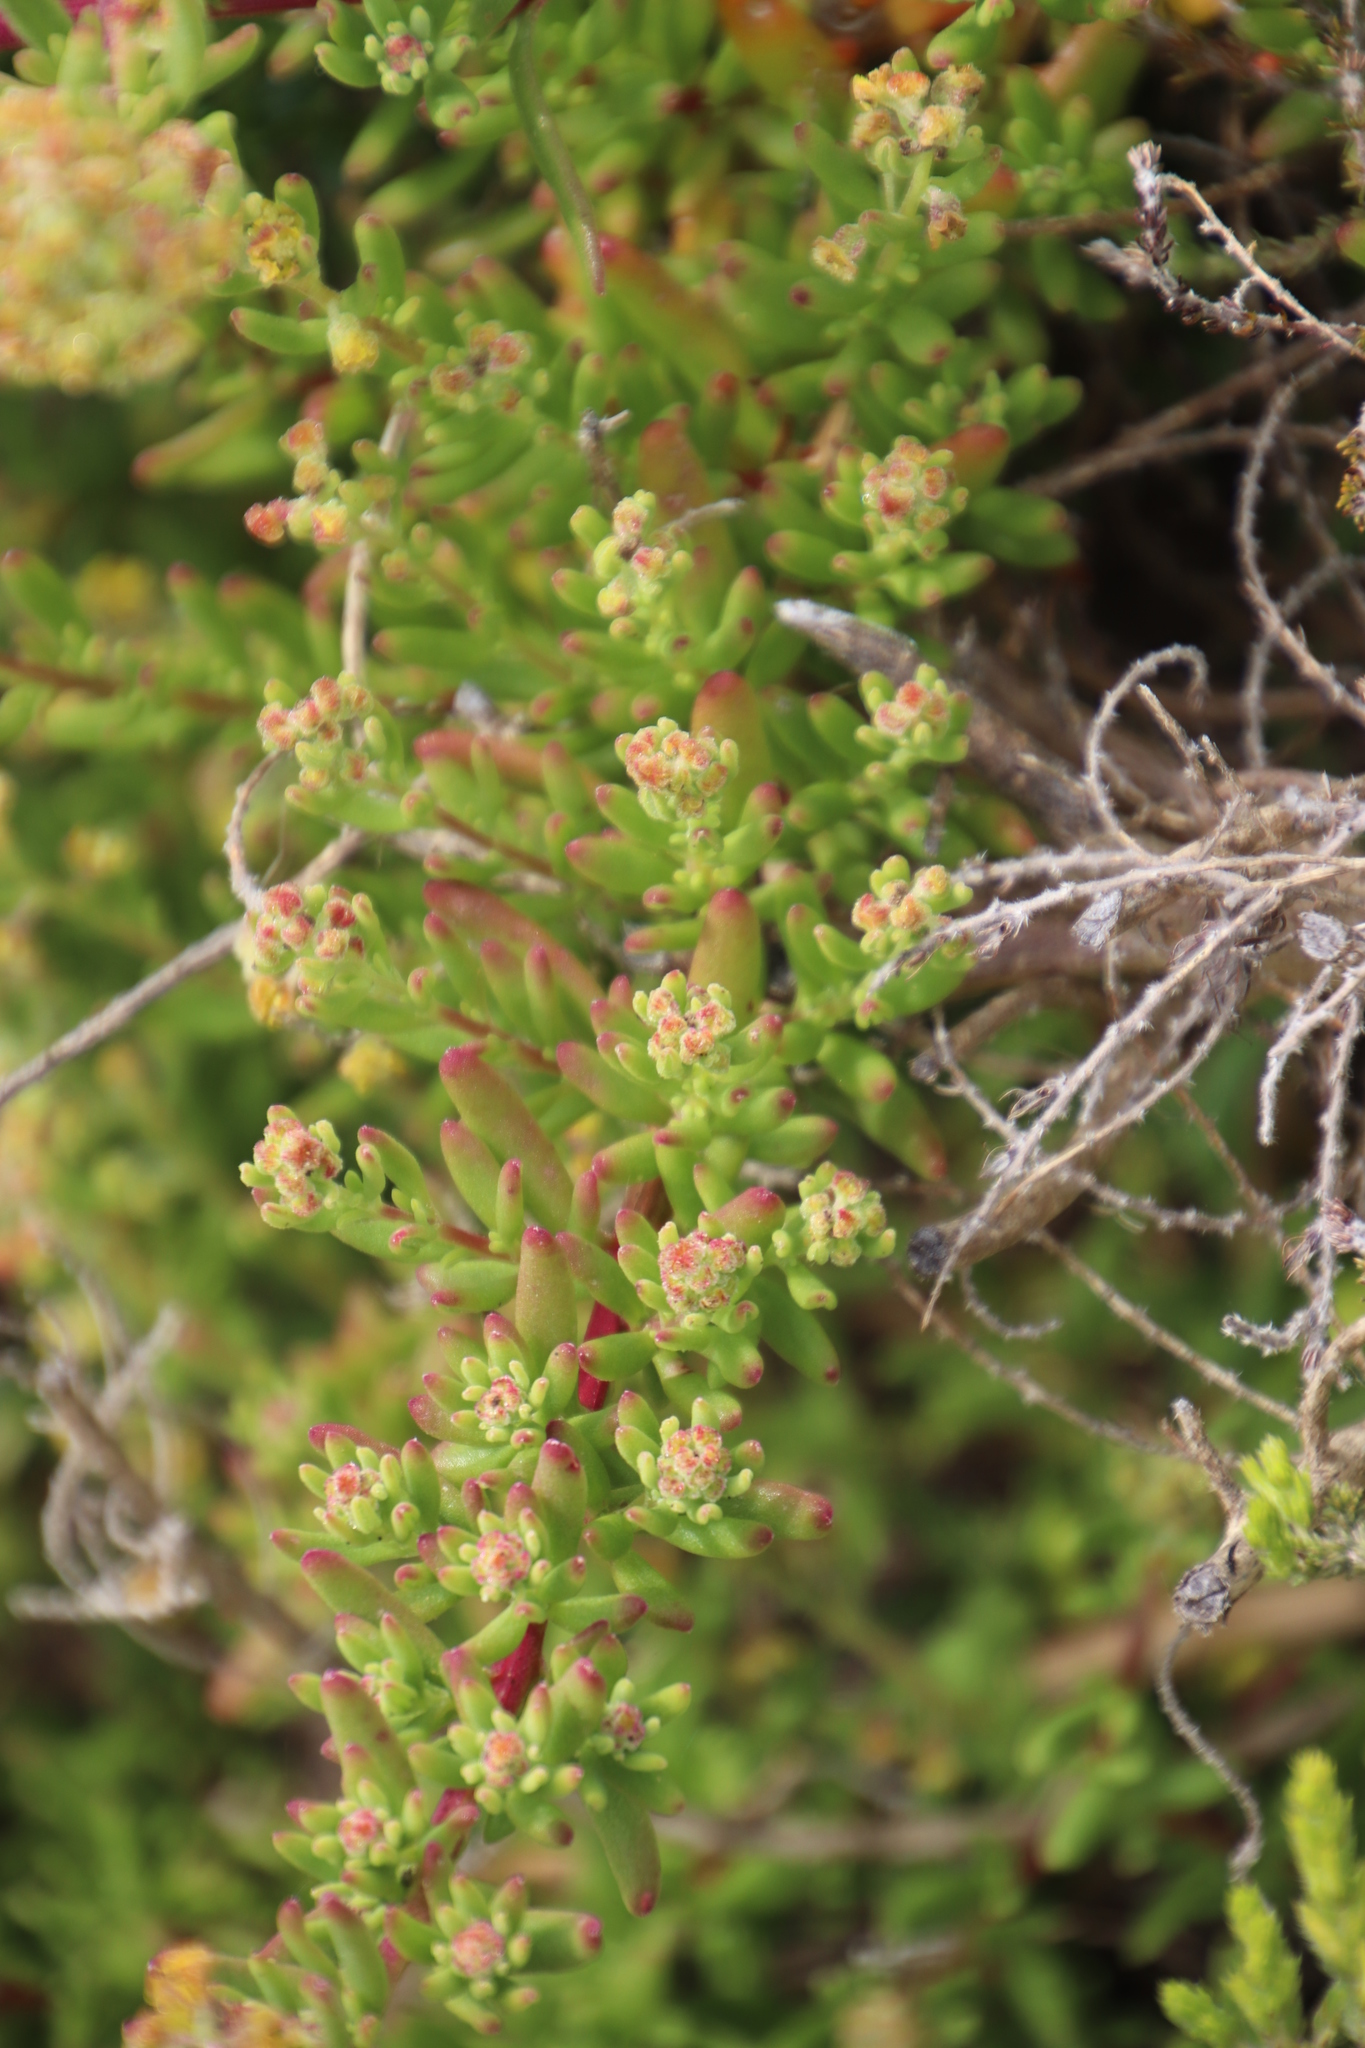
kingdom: Plantae
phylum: Tracheophyta
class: Magnoliopsida
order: Caryophyllales
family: Aizoaceae
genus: Tetragonia
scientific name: Tetragonia fruticosa
